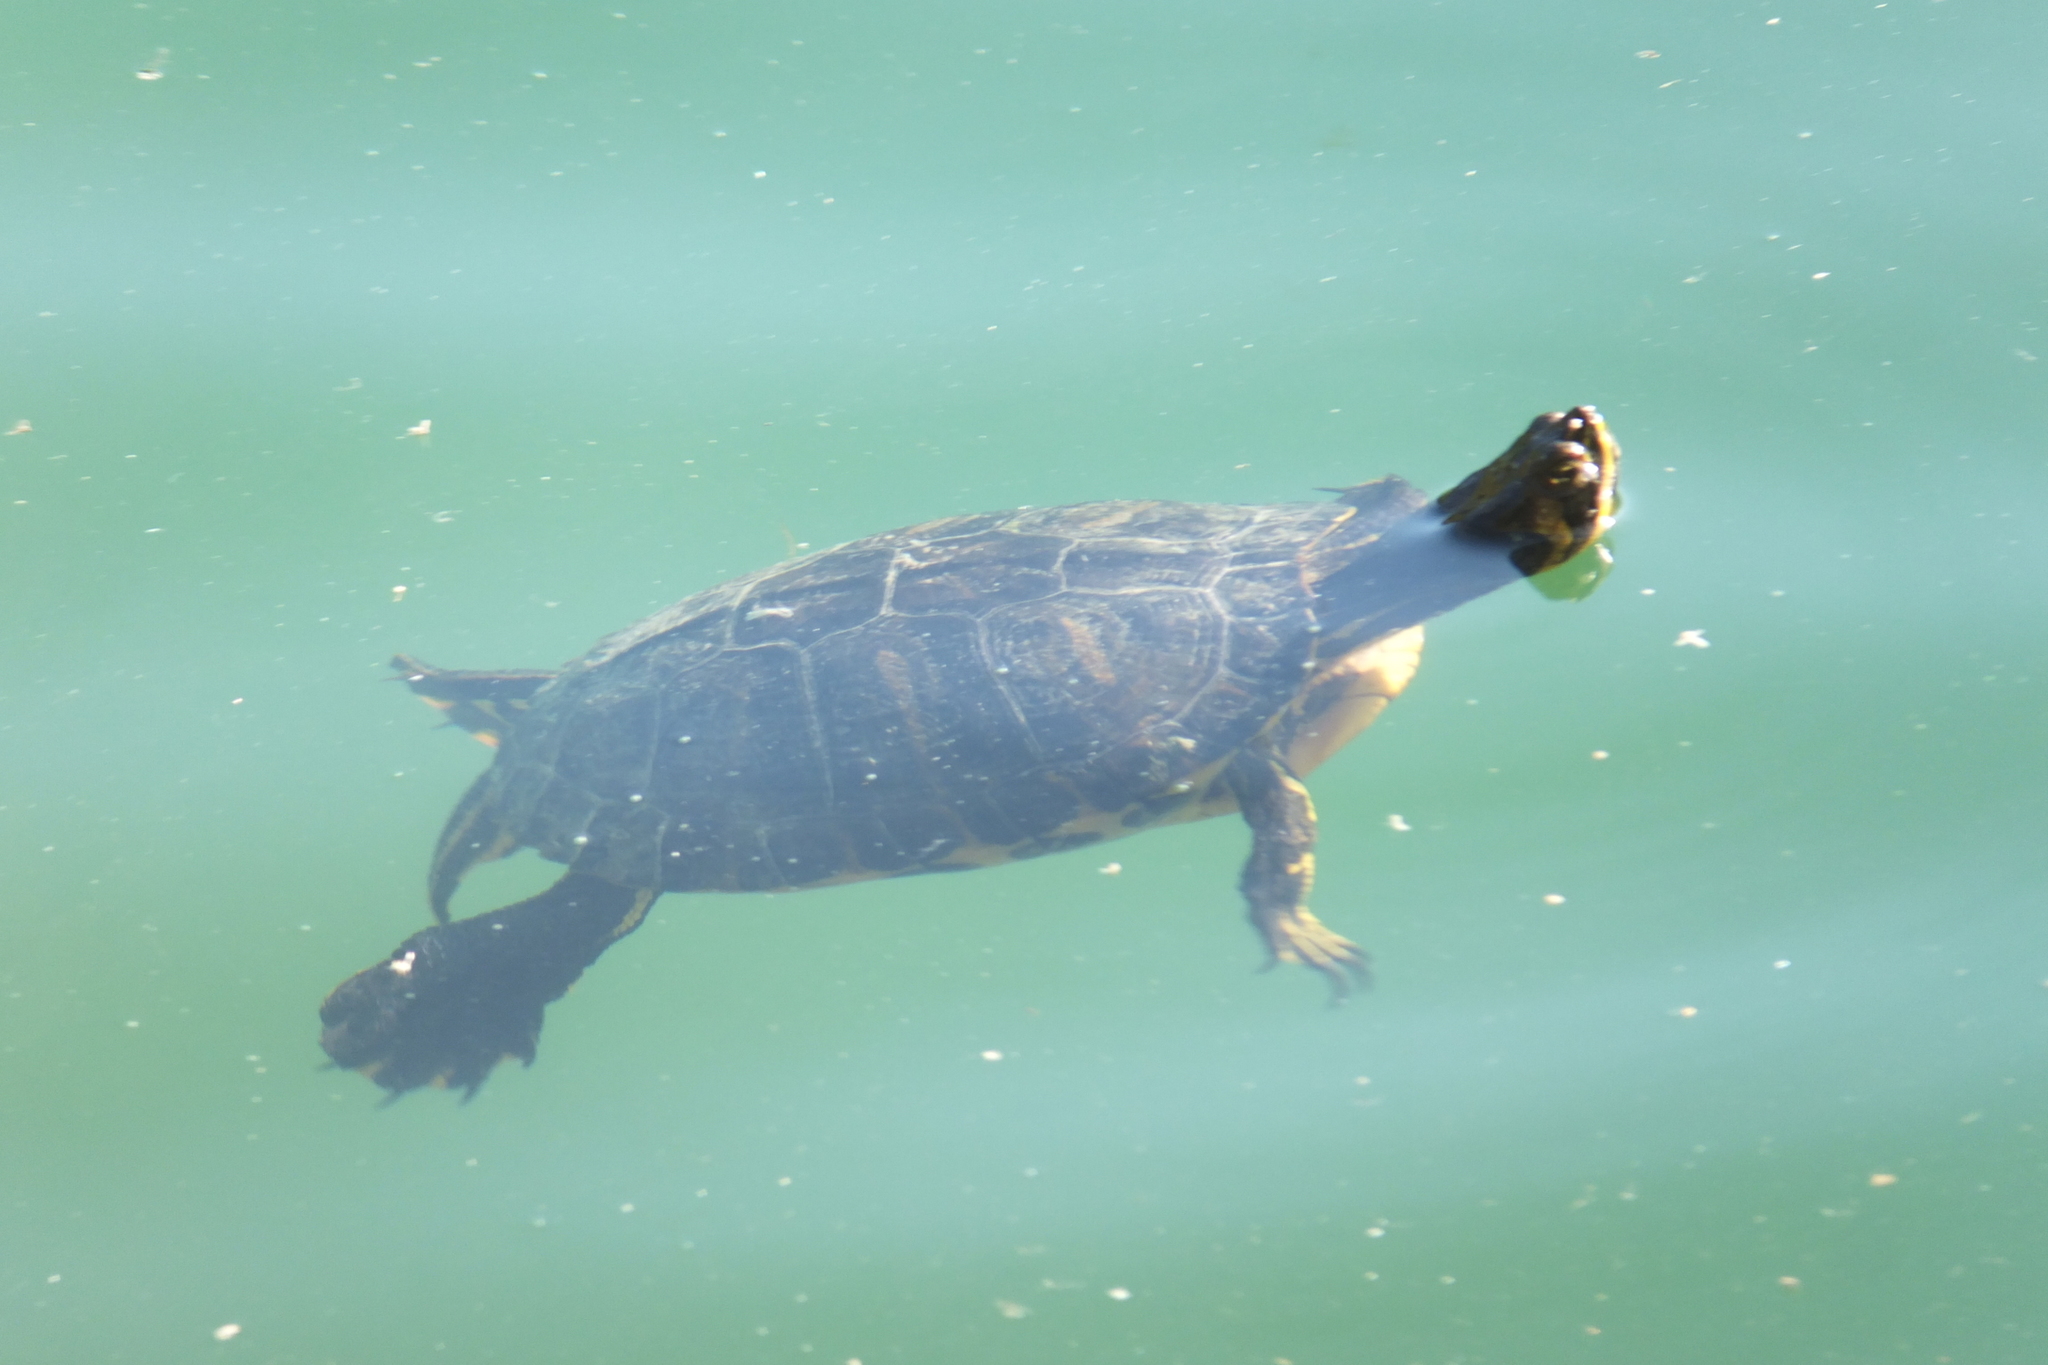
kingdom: Animalia
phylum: Chordata
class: Testudines
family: Emydidae
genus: Trachemys
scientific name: Trachemys scripta
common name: Slider
